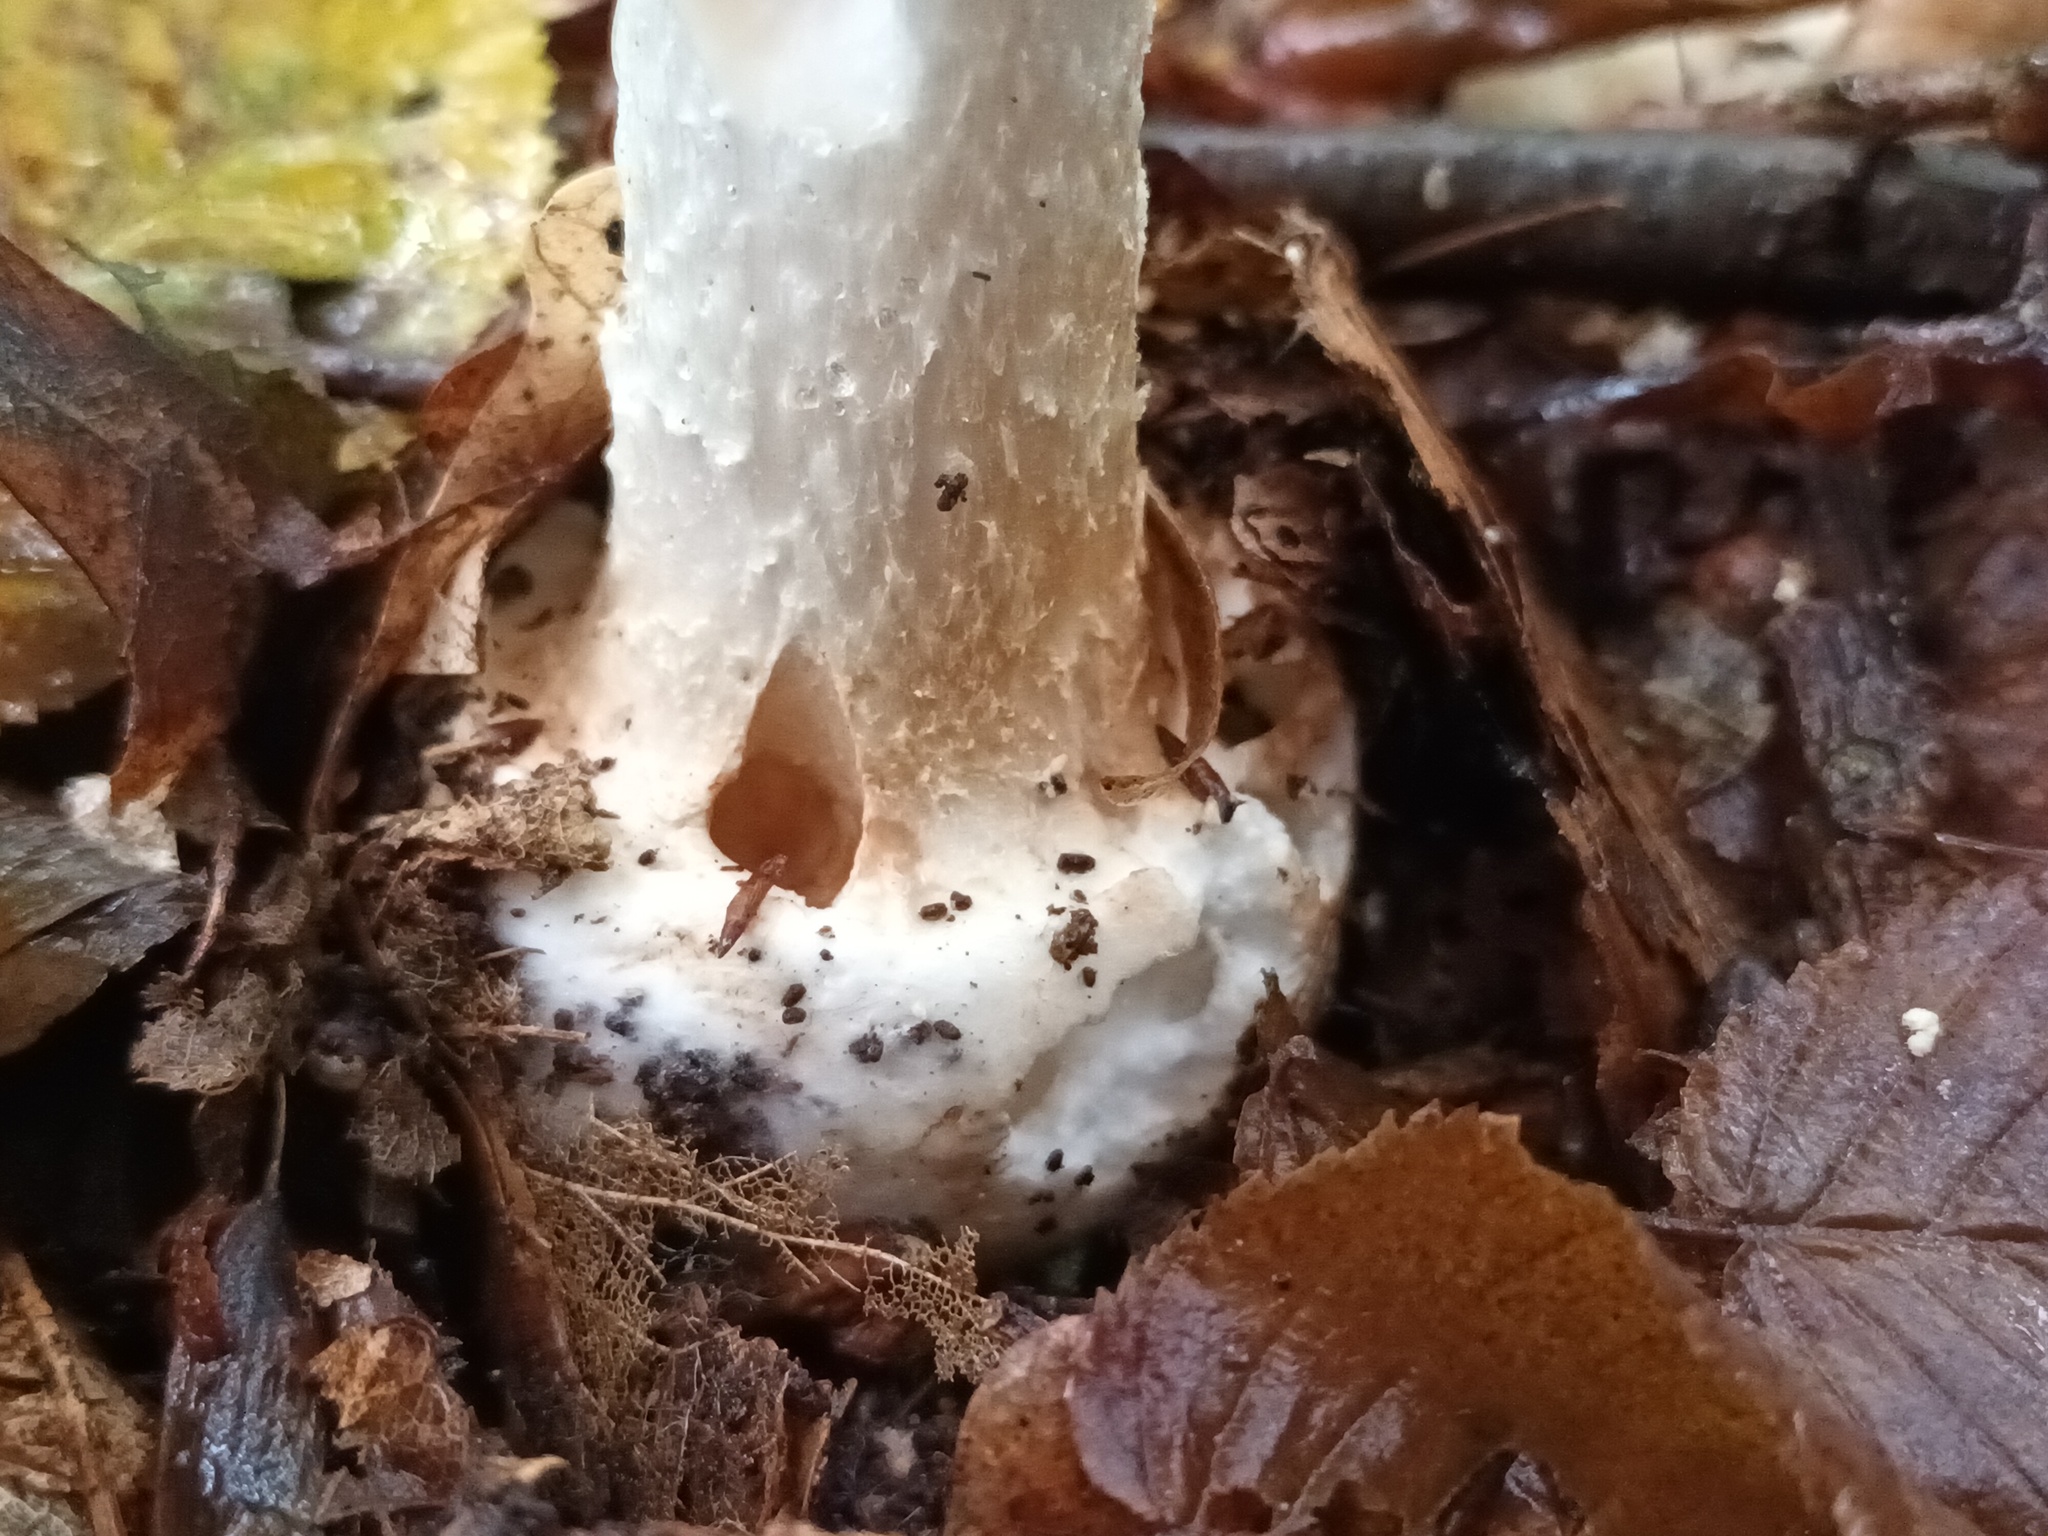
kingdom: Fungi
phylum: Basidiomycota
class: Agaricomycetes
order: Agaricales
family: Amanitaceae
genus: Amanita
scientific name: Amanita citrina
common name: False death-cap
